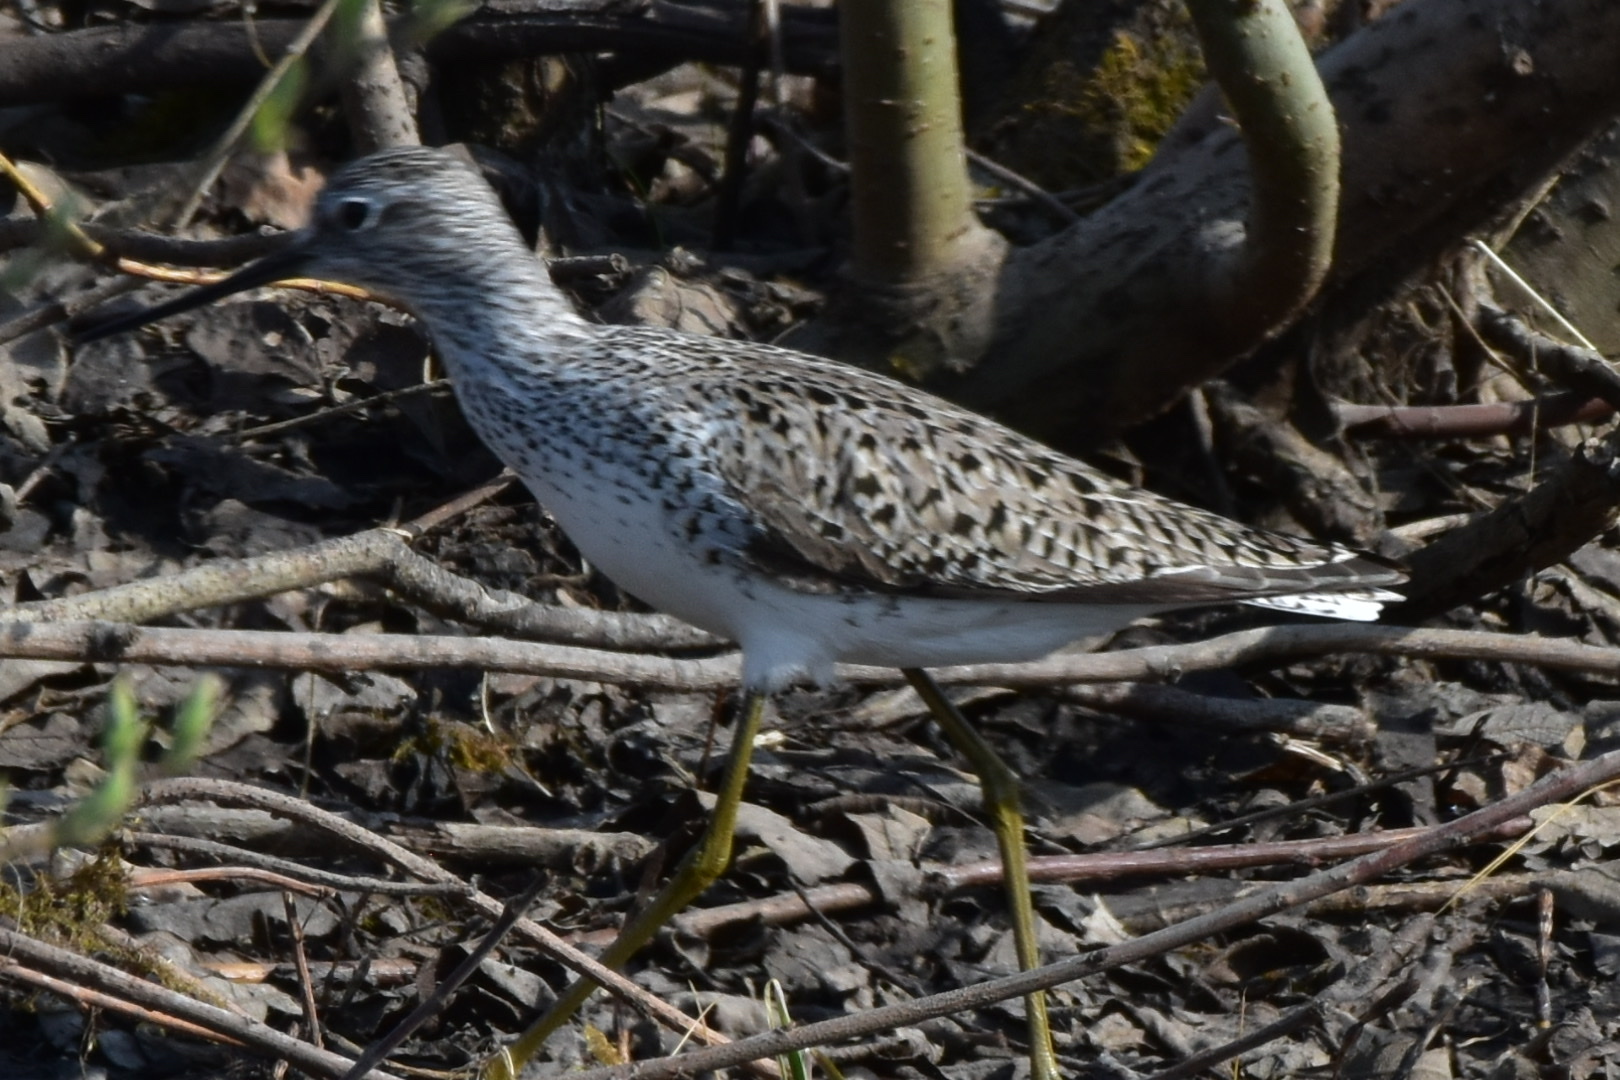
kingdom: Animalia
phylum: Chordata
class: Aves
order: Charadriiformes
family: Scolopacidae
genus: Tringa
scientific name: Tringa stagnatilis
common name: Marsh sandpiper
